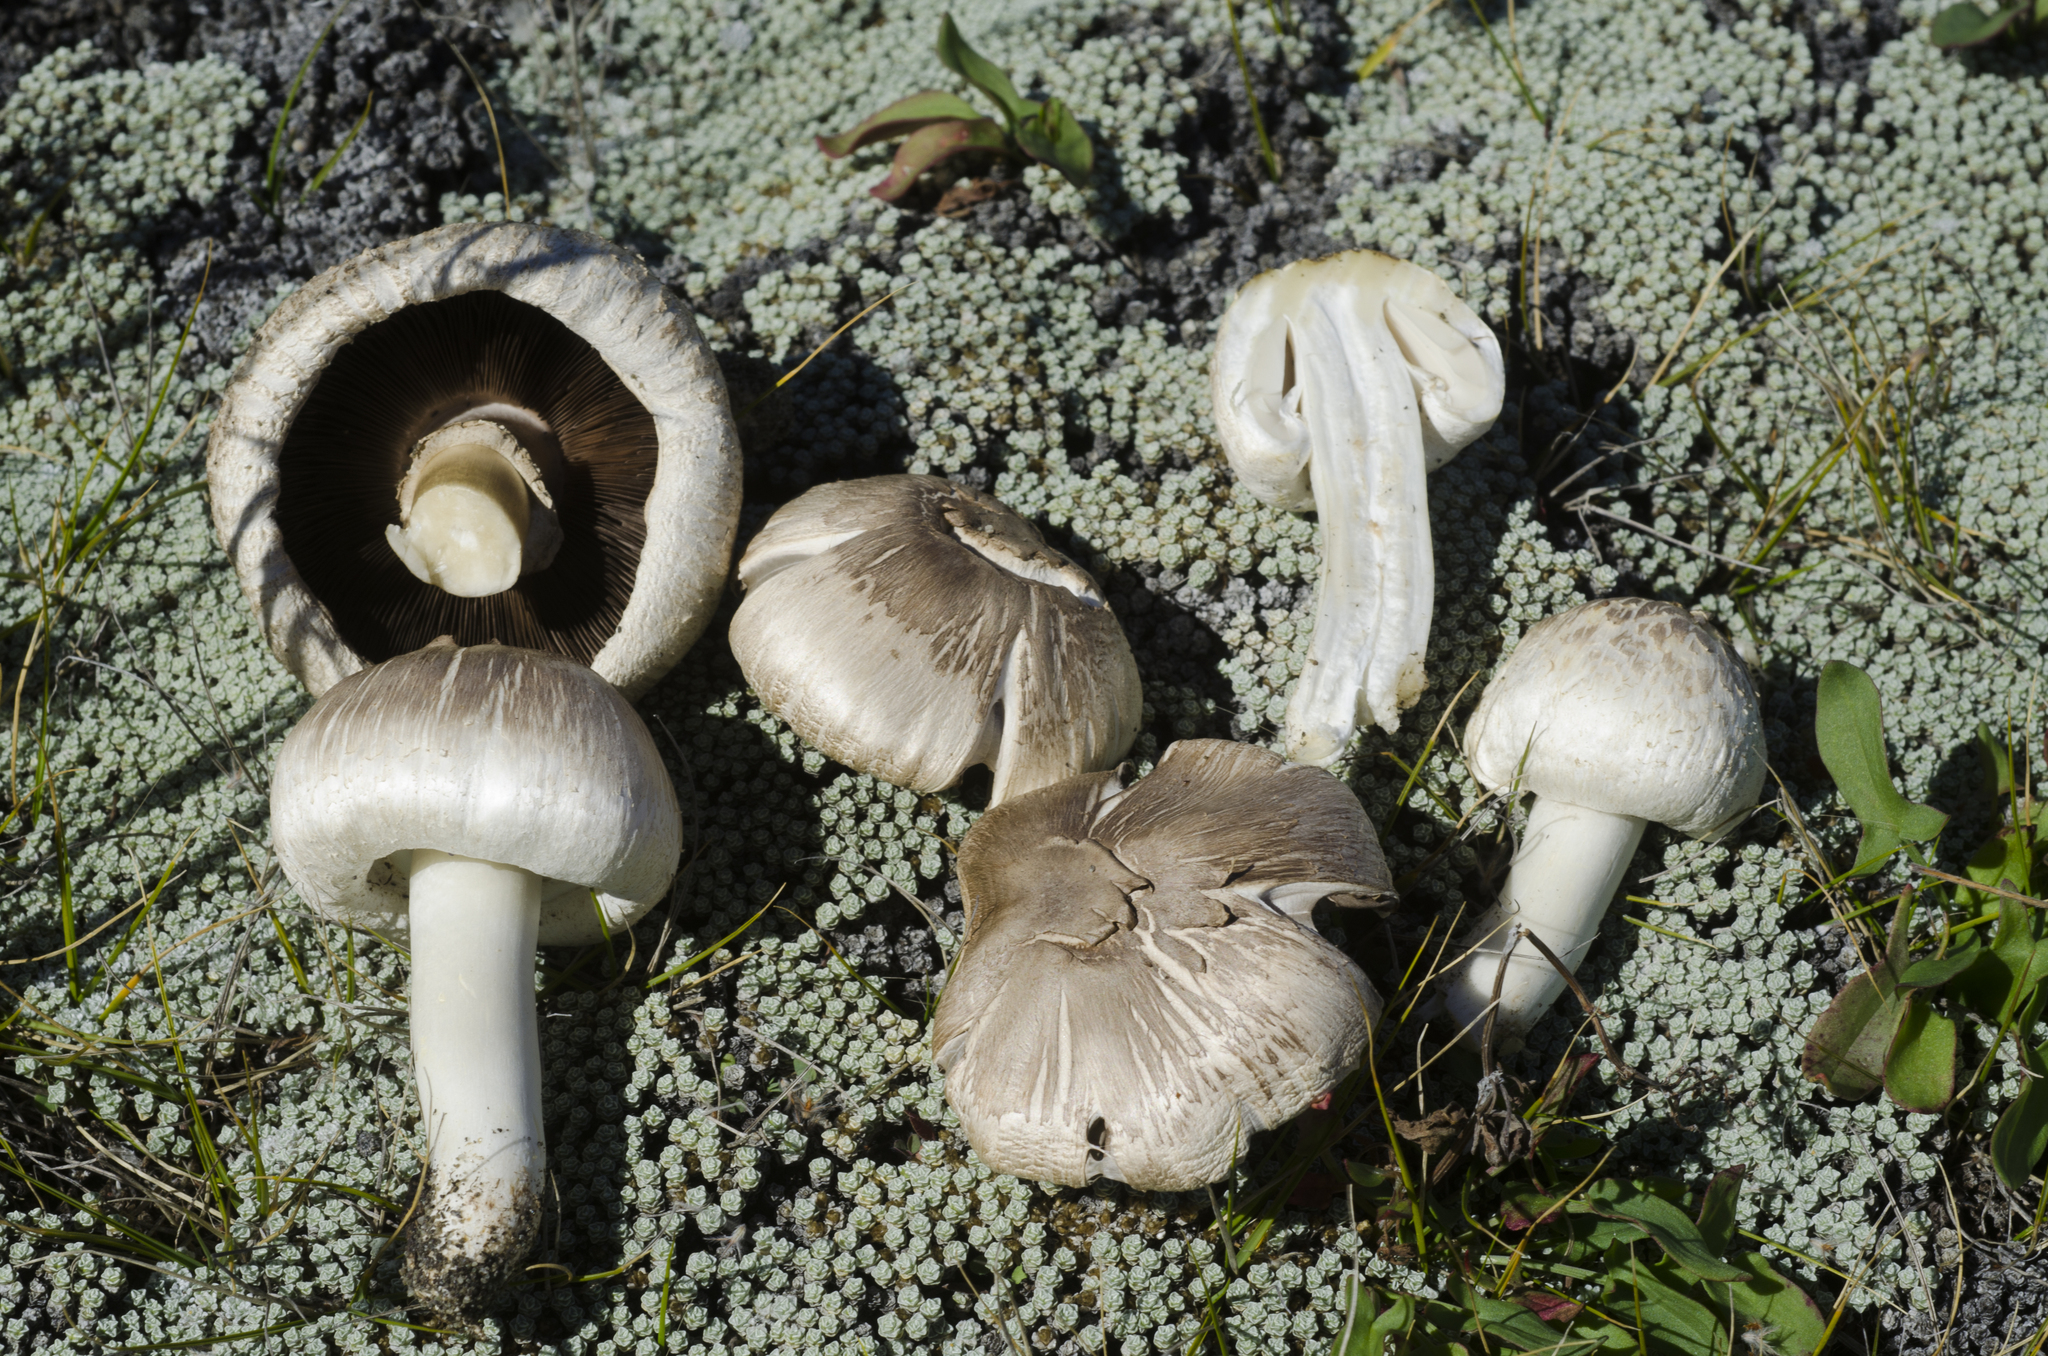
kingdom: Fungi
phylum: Basidiomycota
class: Agaricomycetes
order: Agaricales
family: Agaricaceae
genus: Agaricus
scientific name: Agaricus californicus
